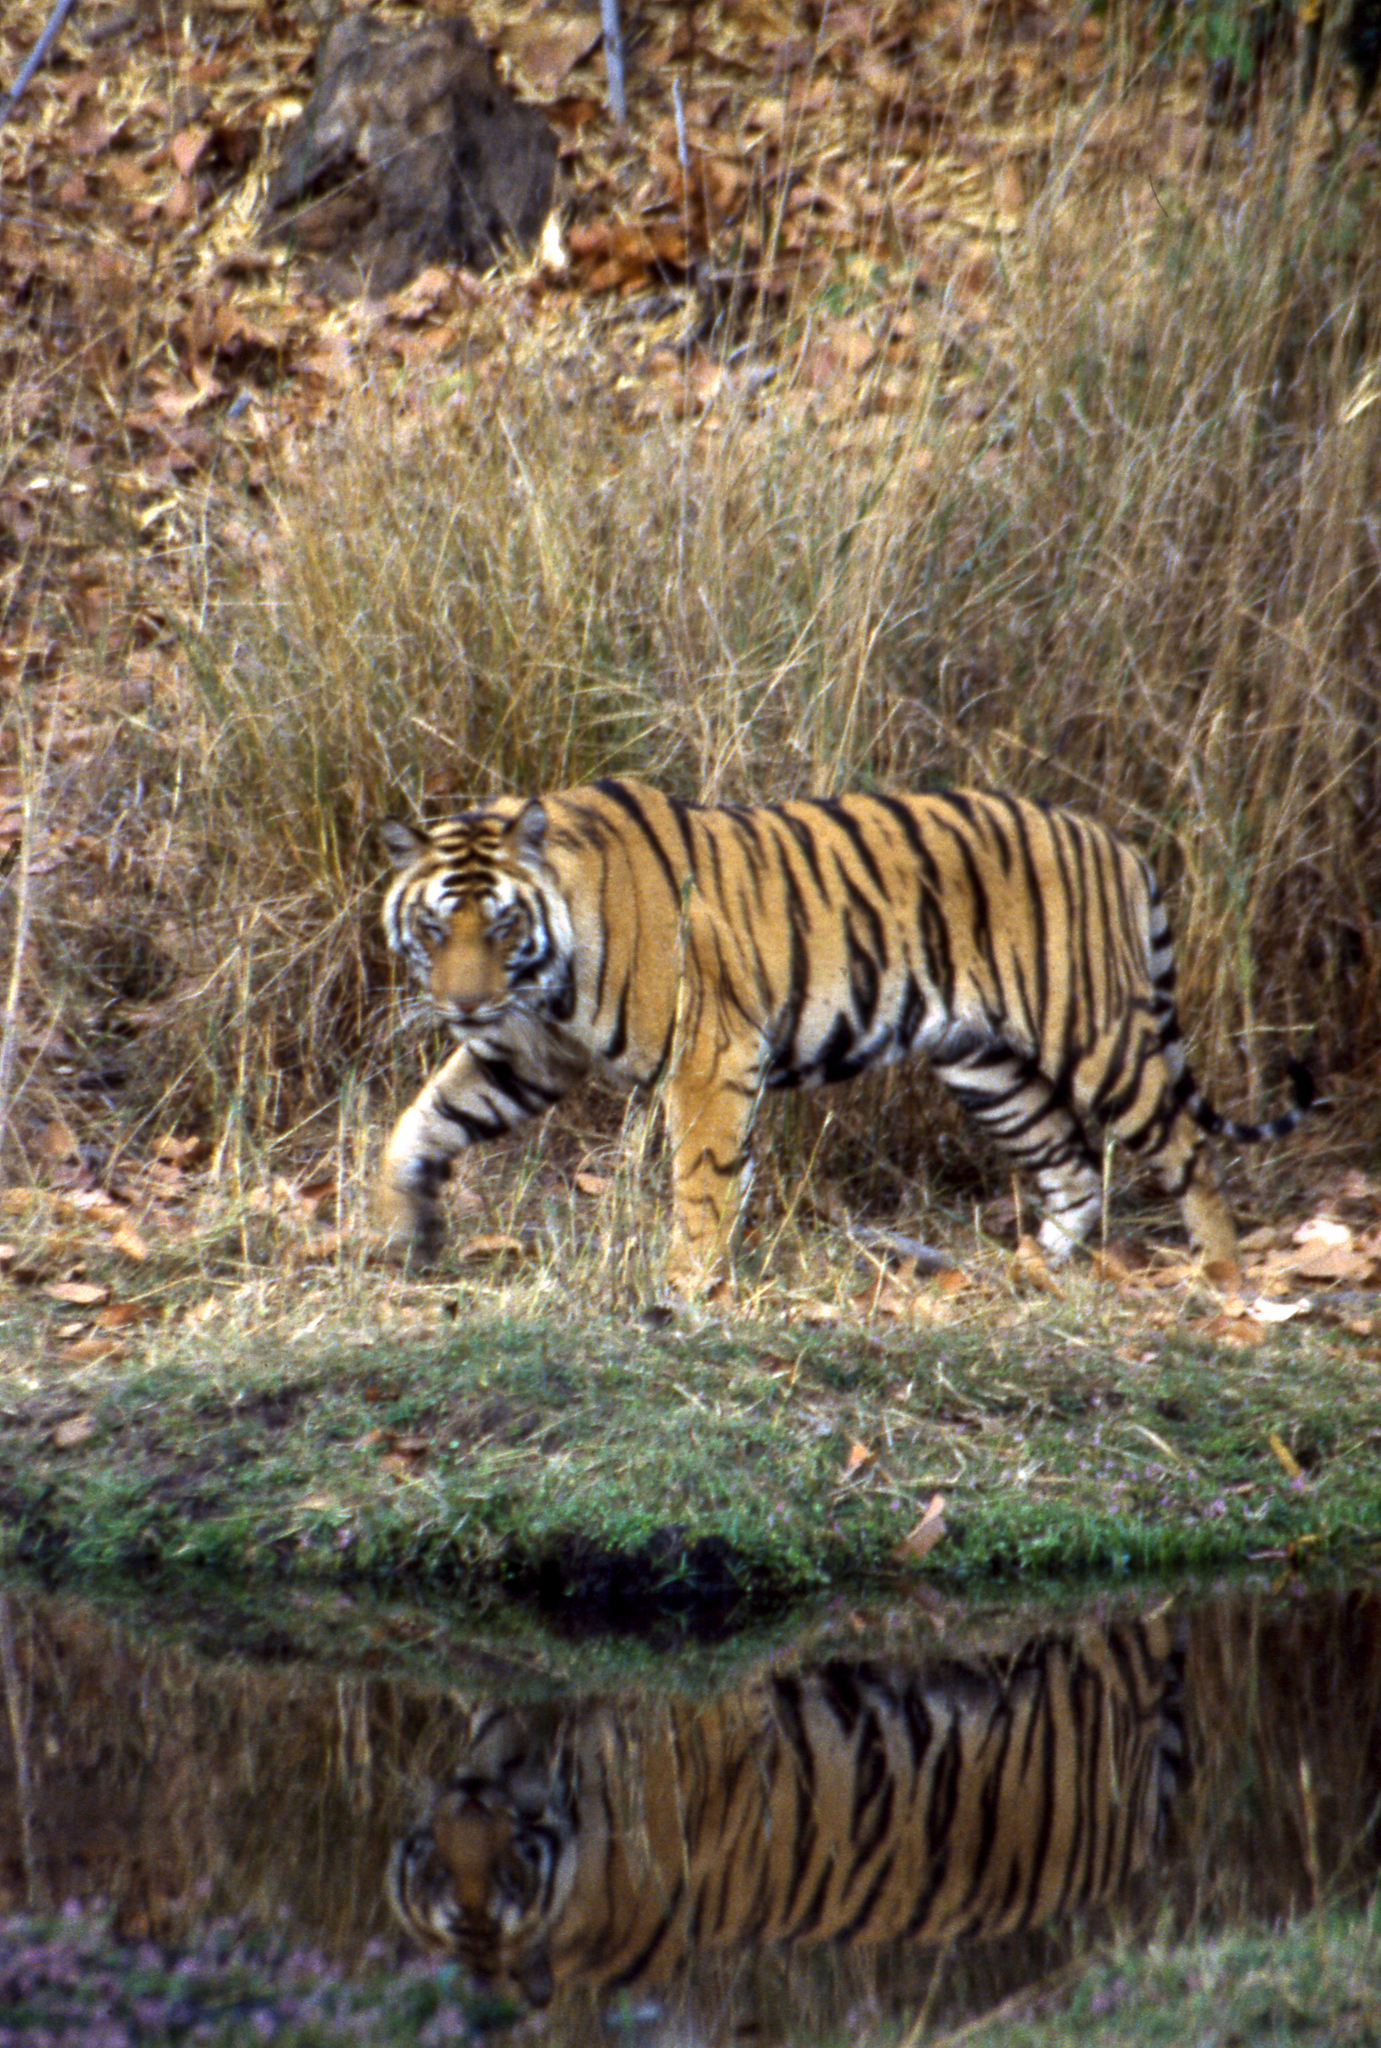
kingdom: Animalia
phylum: Chordata
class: Mammalia
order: Carnivora
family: Felidae
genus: Panthera
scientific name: Panthera tigris
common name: Tiger
